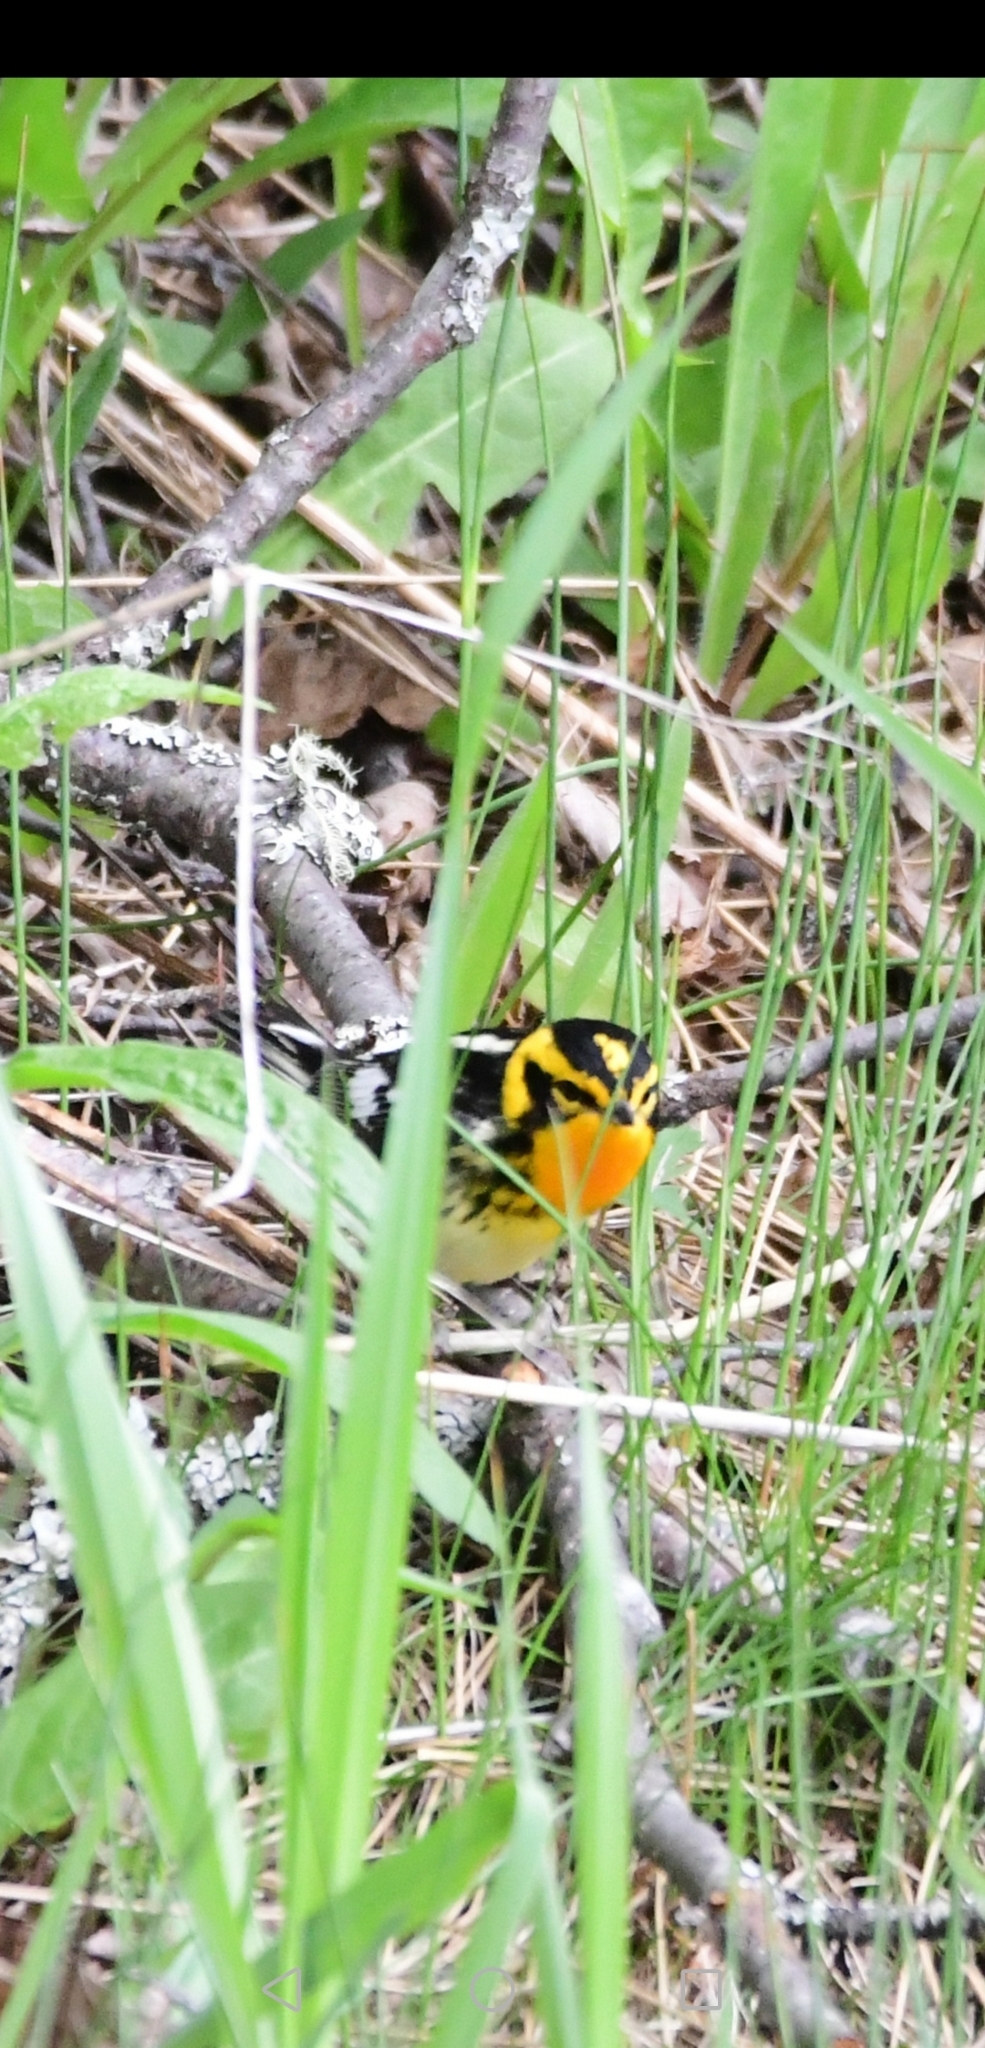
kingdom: Animalia
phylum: Chordata
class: Aves
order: Passeriformes
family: Parulidae
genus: Setophaga
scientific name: Setophaga fusca
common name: Blackburnian warbler
